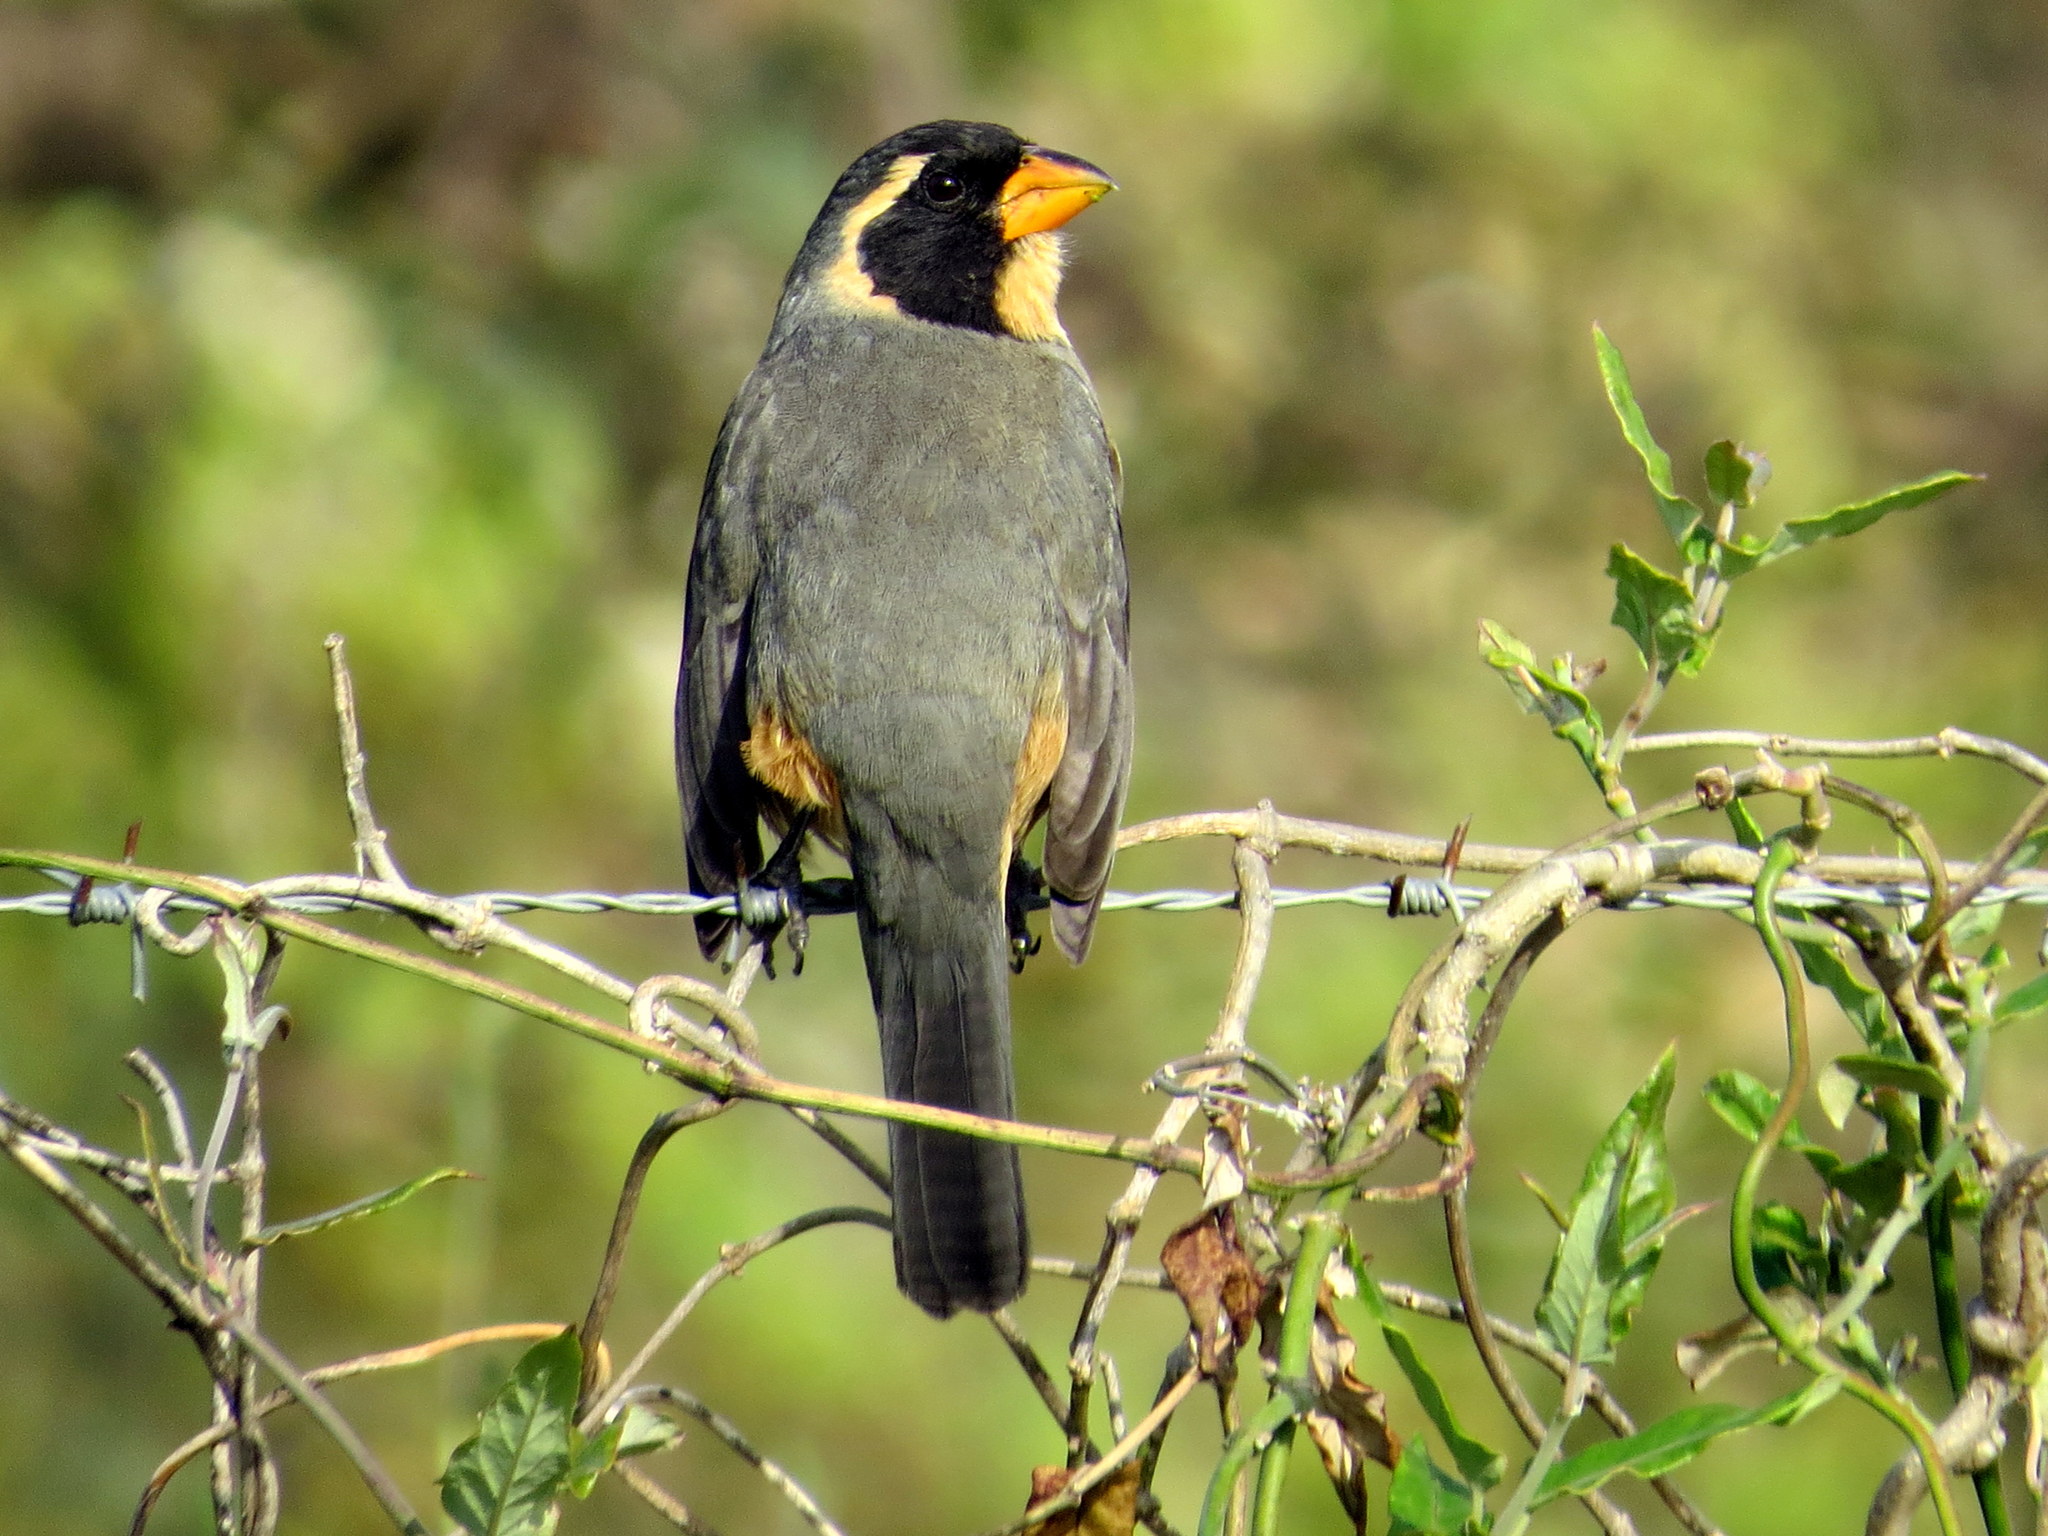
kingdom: Animalia
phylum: Chordata
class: Aves
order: Passeriformes
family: Thraupidae
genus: Saltator
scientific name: Saltator aurantiirostris
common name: Golden-billed saltator
